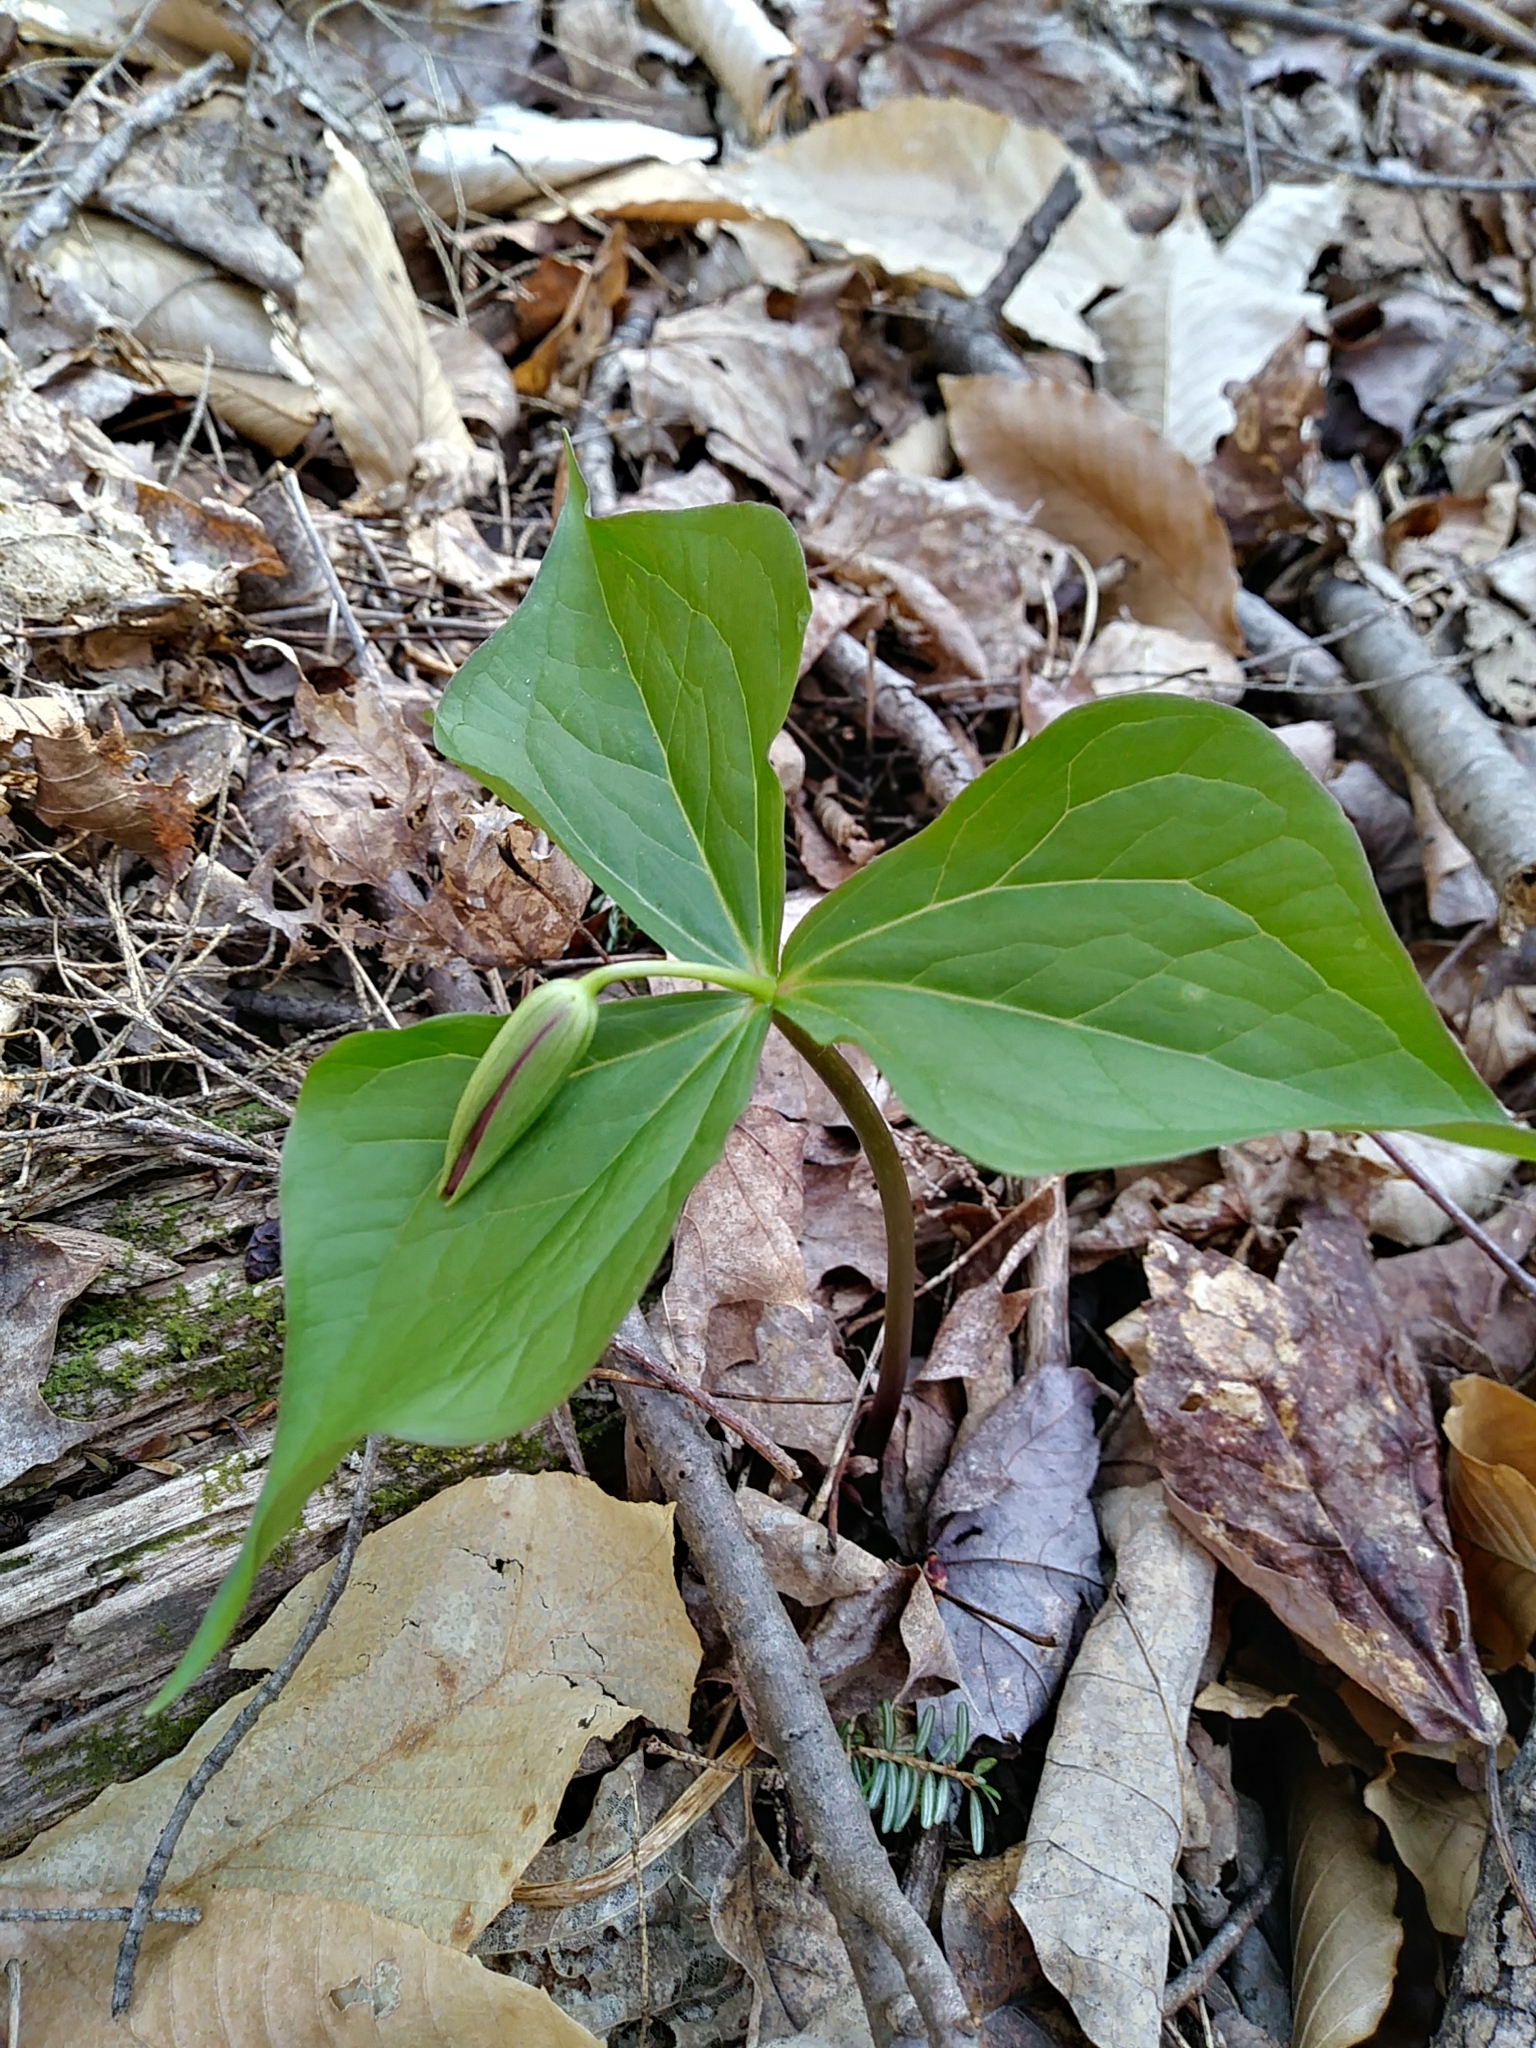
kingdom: Plantae
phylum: Tracheophyta
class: Liliopsida
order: Liliales
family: Melanthiaceae
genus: Trillium
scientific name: Trillium erectum
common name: Purple trillium
